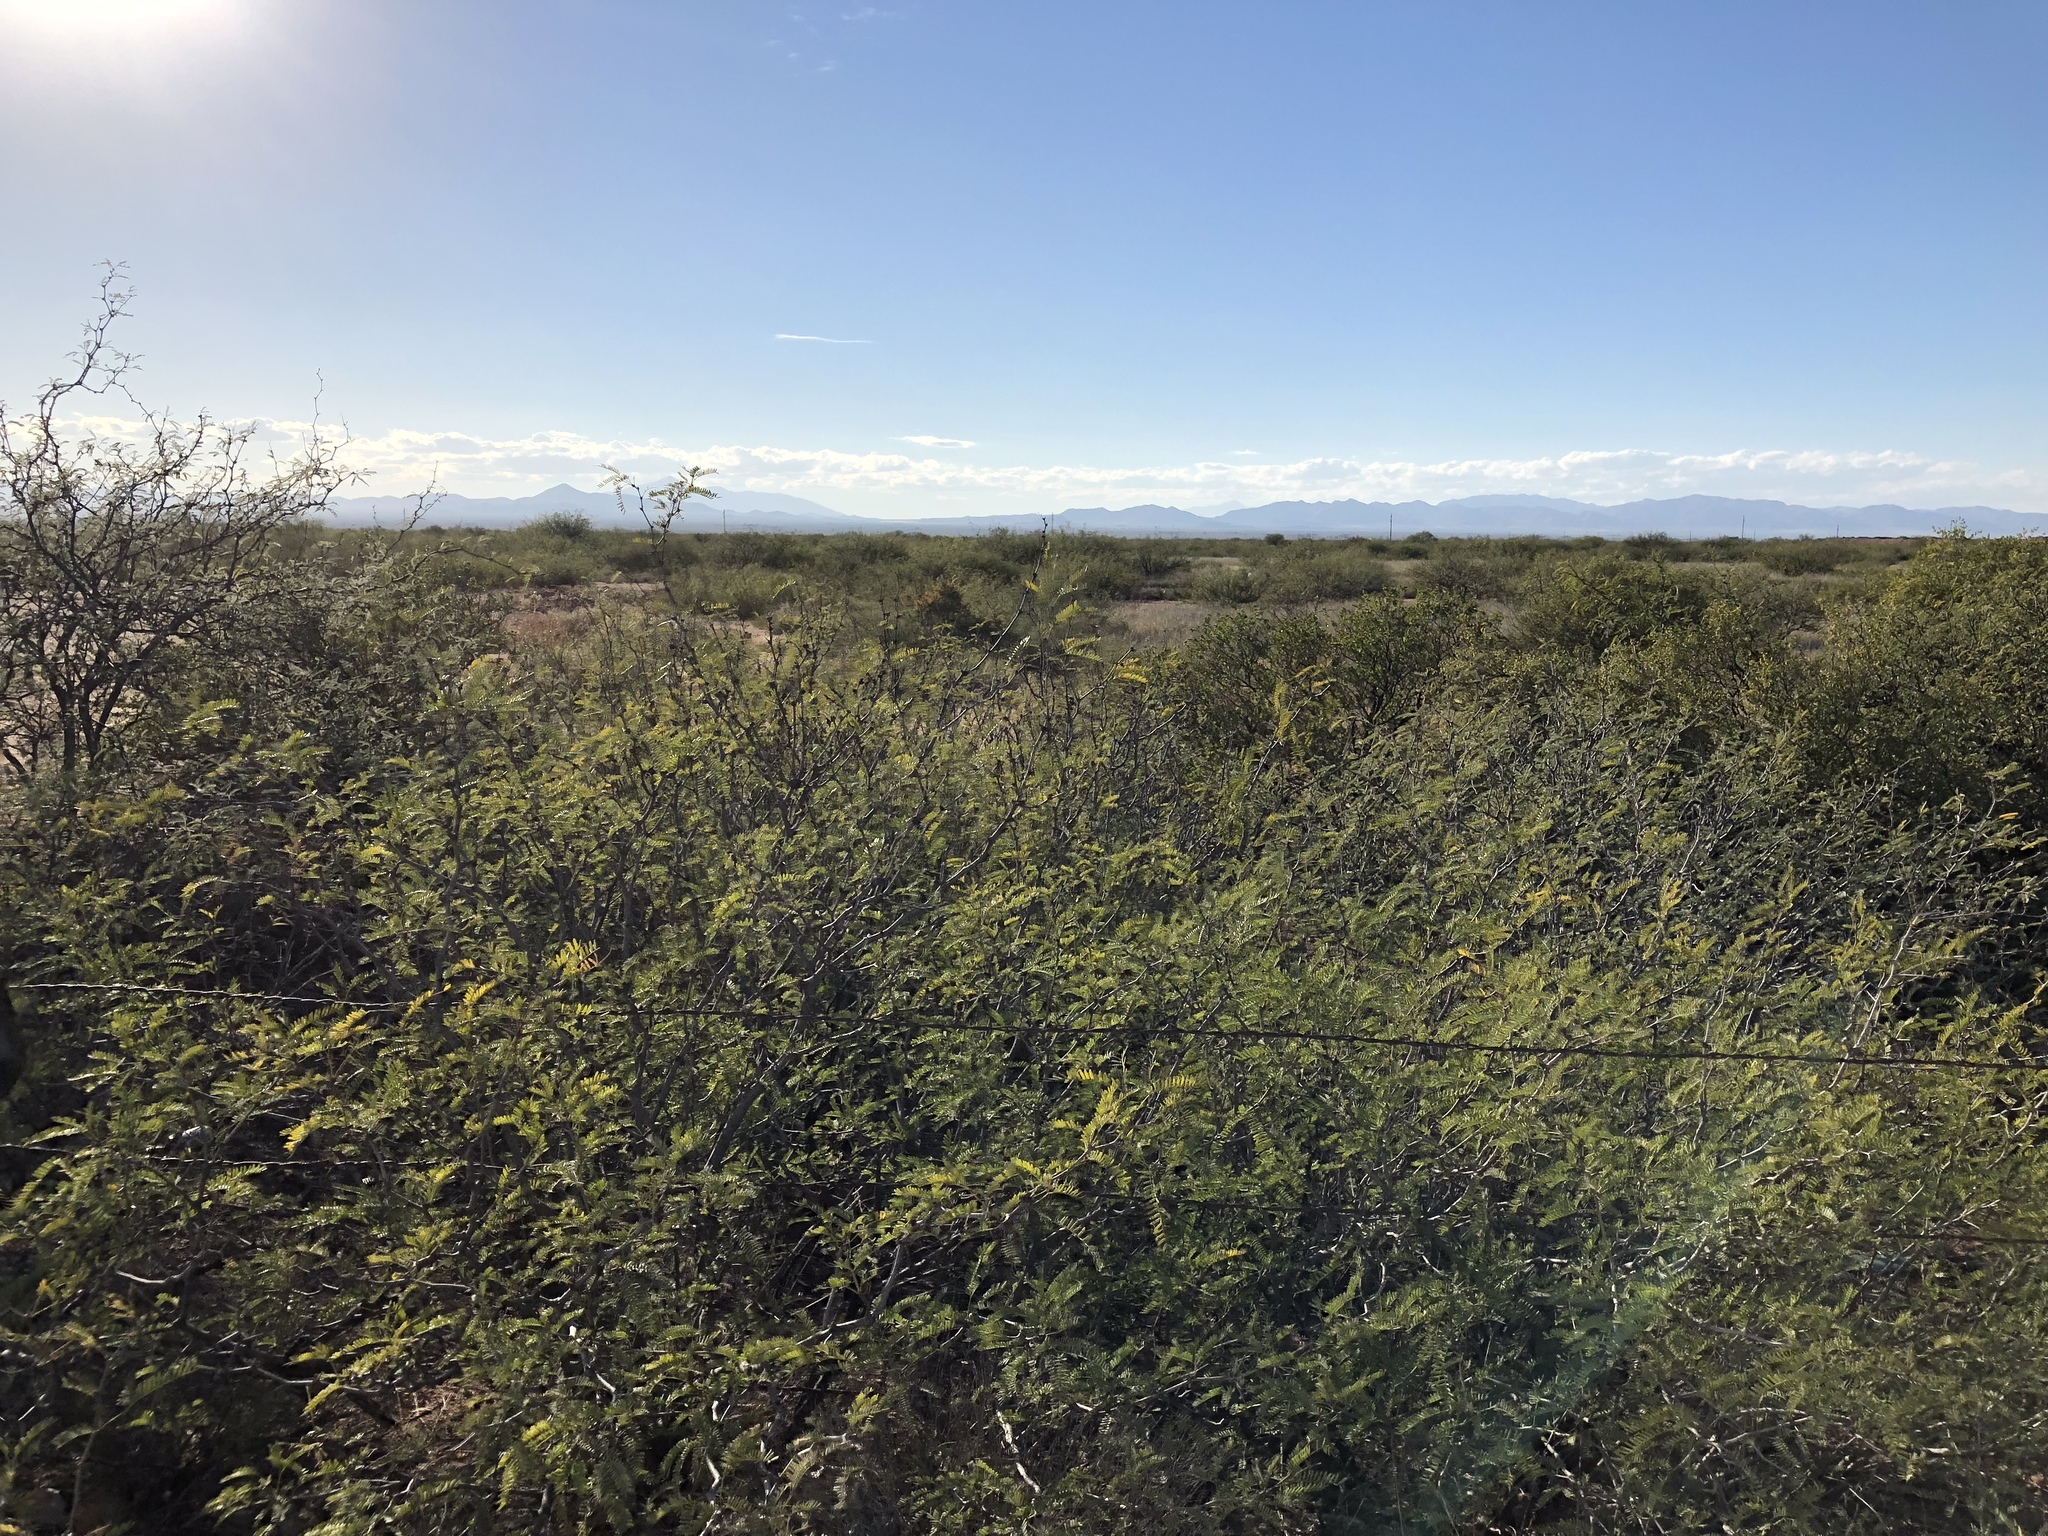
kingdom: Plantae
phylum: Tracheophyta
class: Magnoliopsida
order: Fabales
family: Fabaceae
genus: Prosopis
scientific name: Prosopis glandulosa
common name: Honey mesquite
